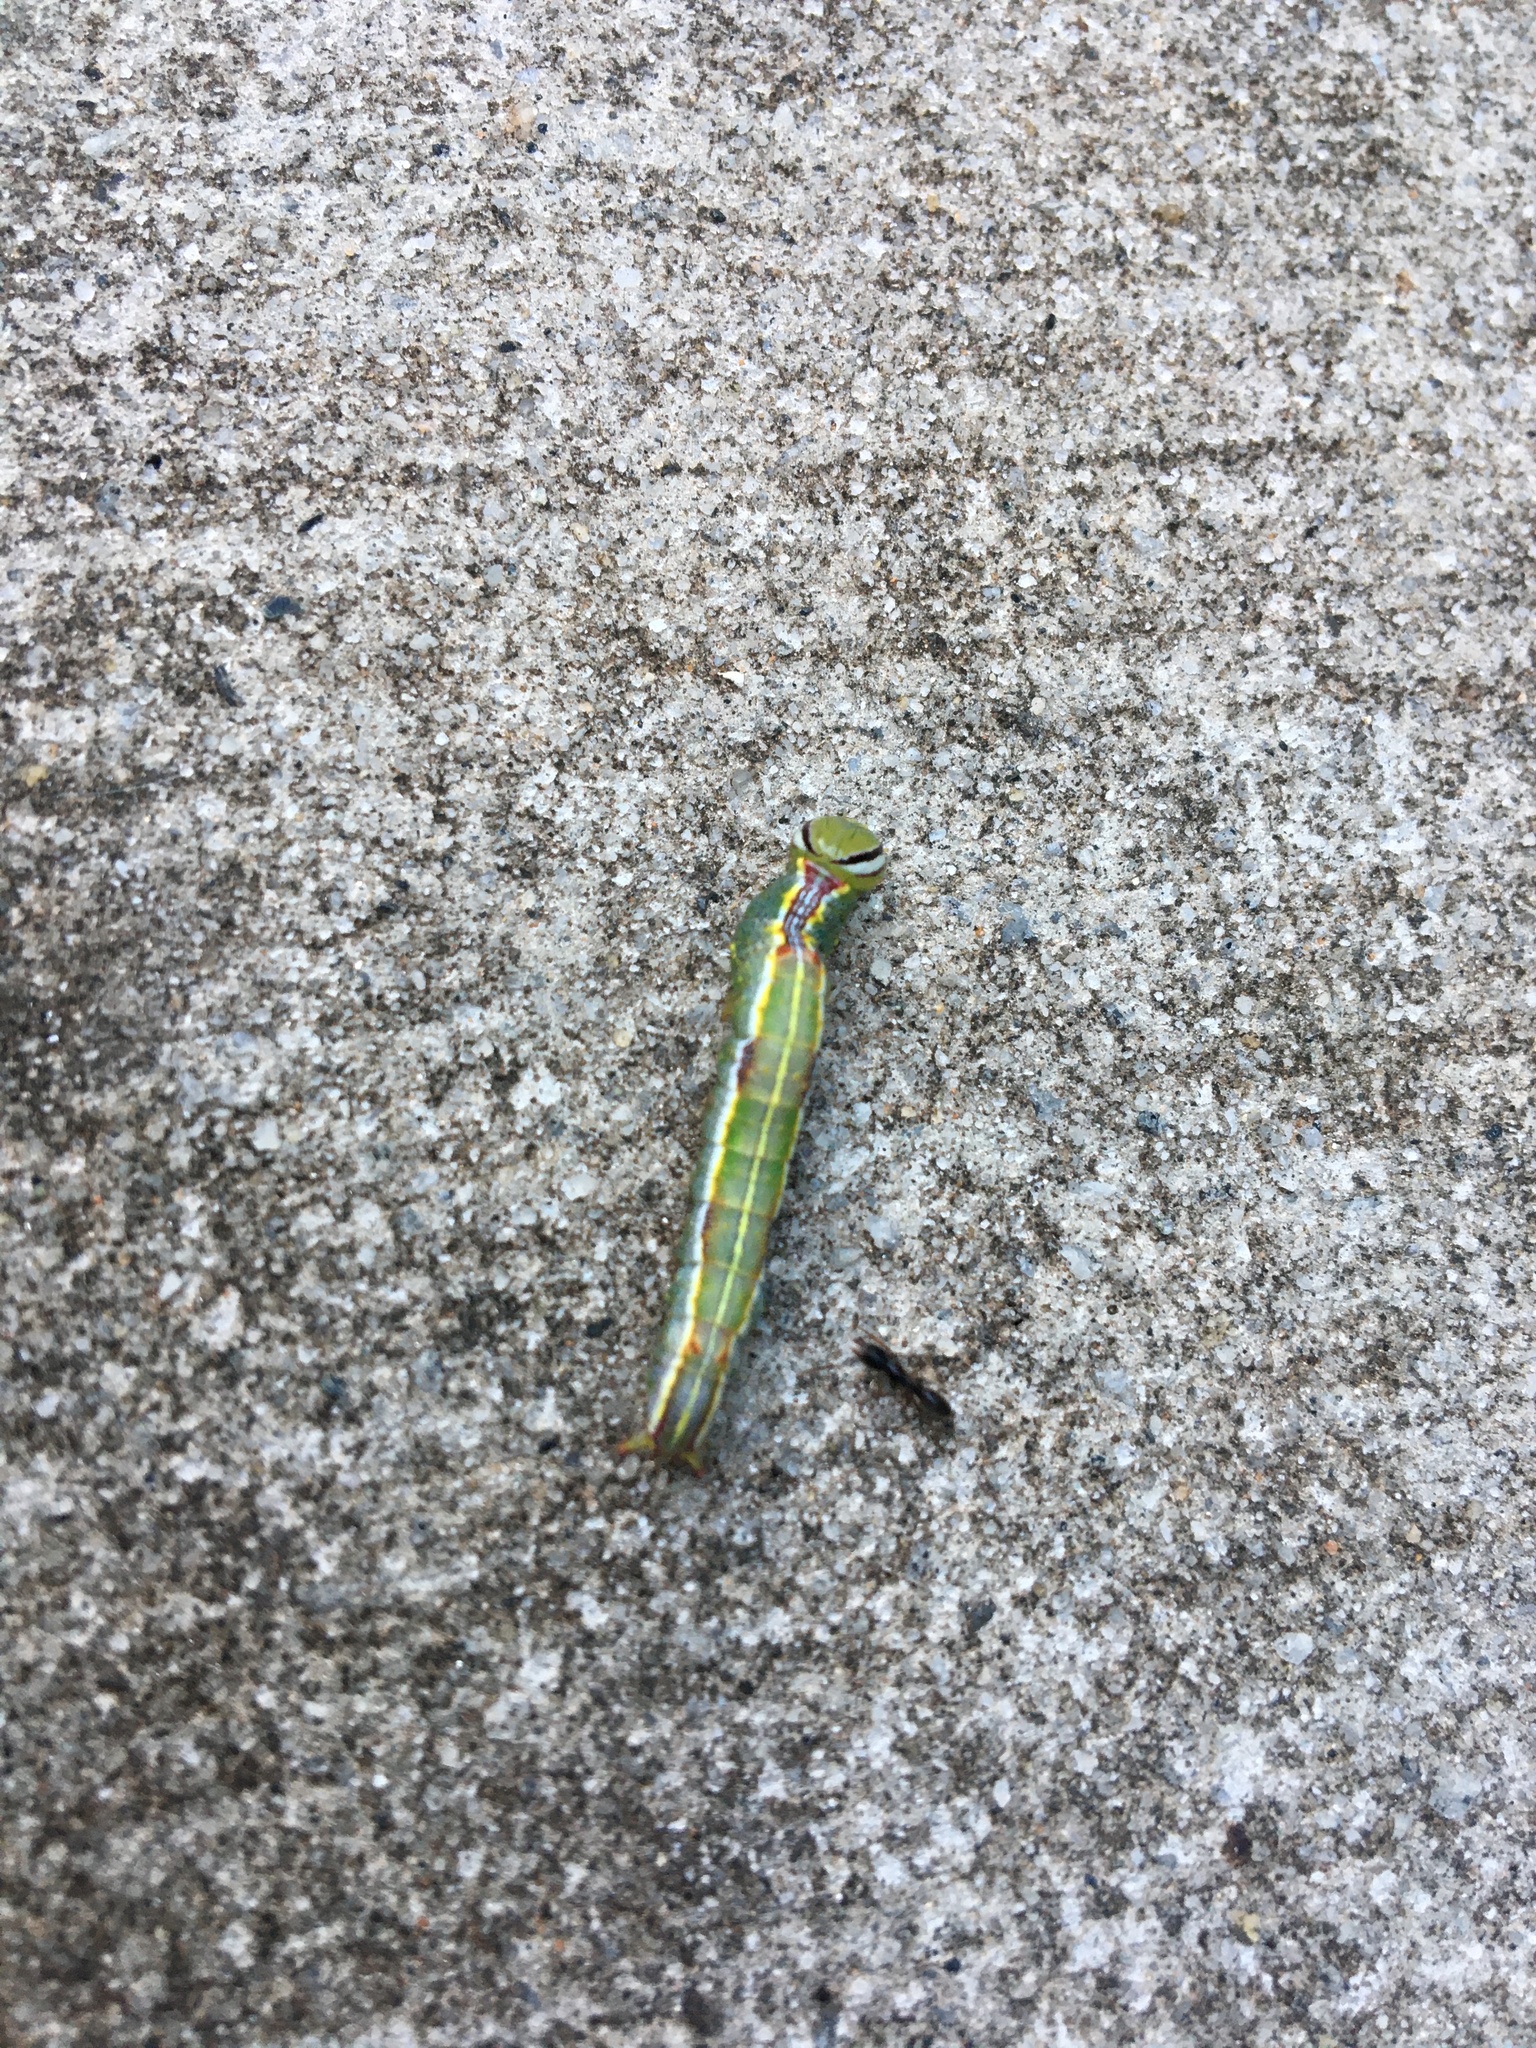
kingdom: Animalia
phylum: Arthropoda
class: Insecta
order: Lepidoptera
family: Notodontidae
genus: Lochmaeus
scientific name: Lochmaeus manteo
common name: Variable oakleaf caterpillar moth
